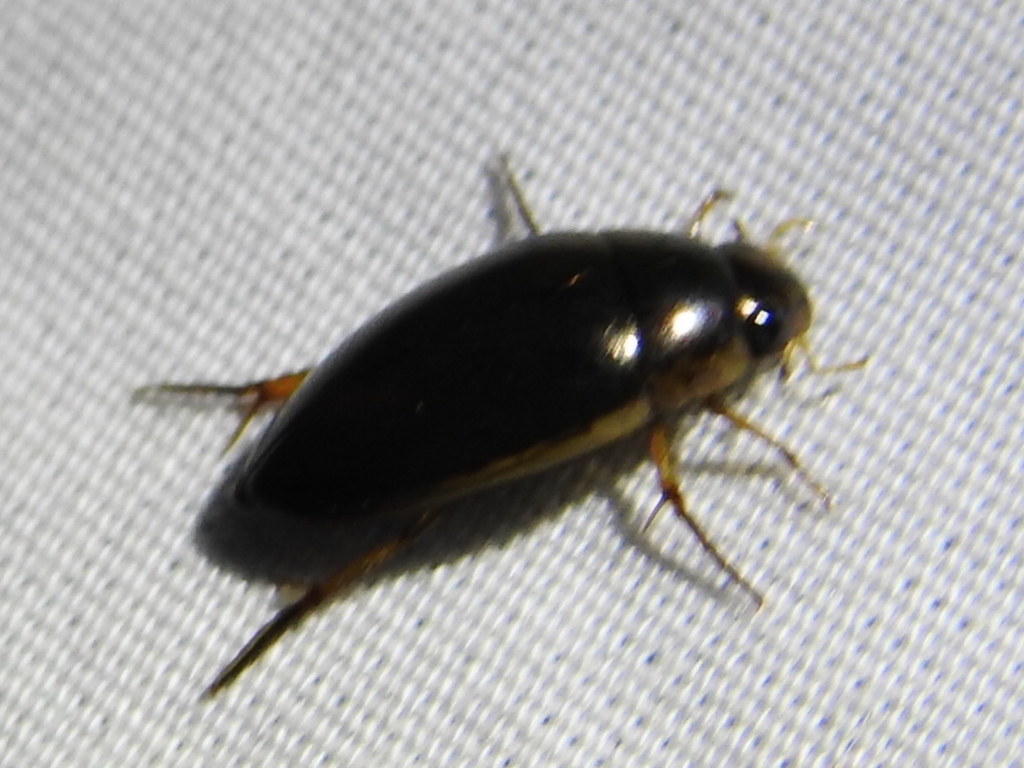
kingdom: Animalia
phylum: Arthropoda
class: Insecta
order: Coleoptera
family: Hydrophilidae
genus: Tropisternus
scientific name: Tropisternus lateralis
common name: Lateral-banded water scavenger beetle
